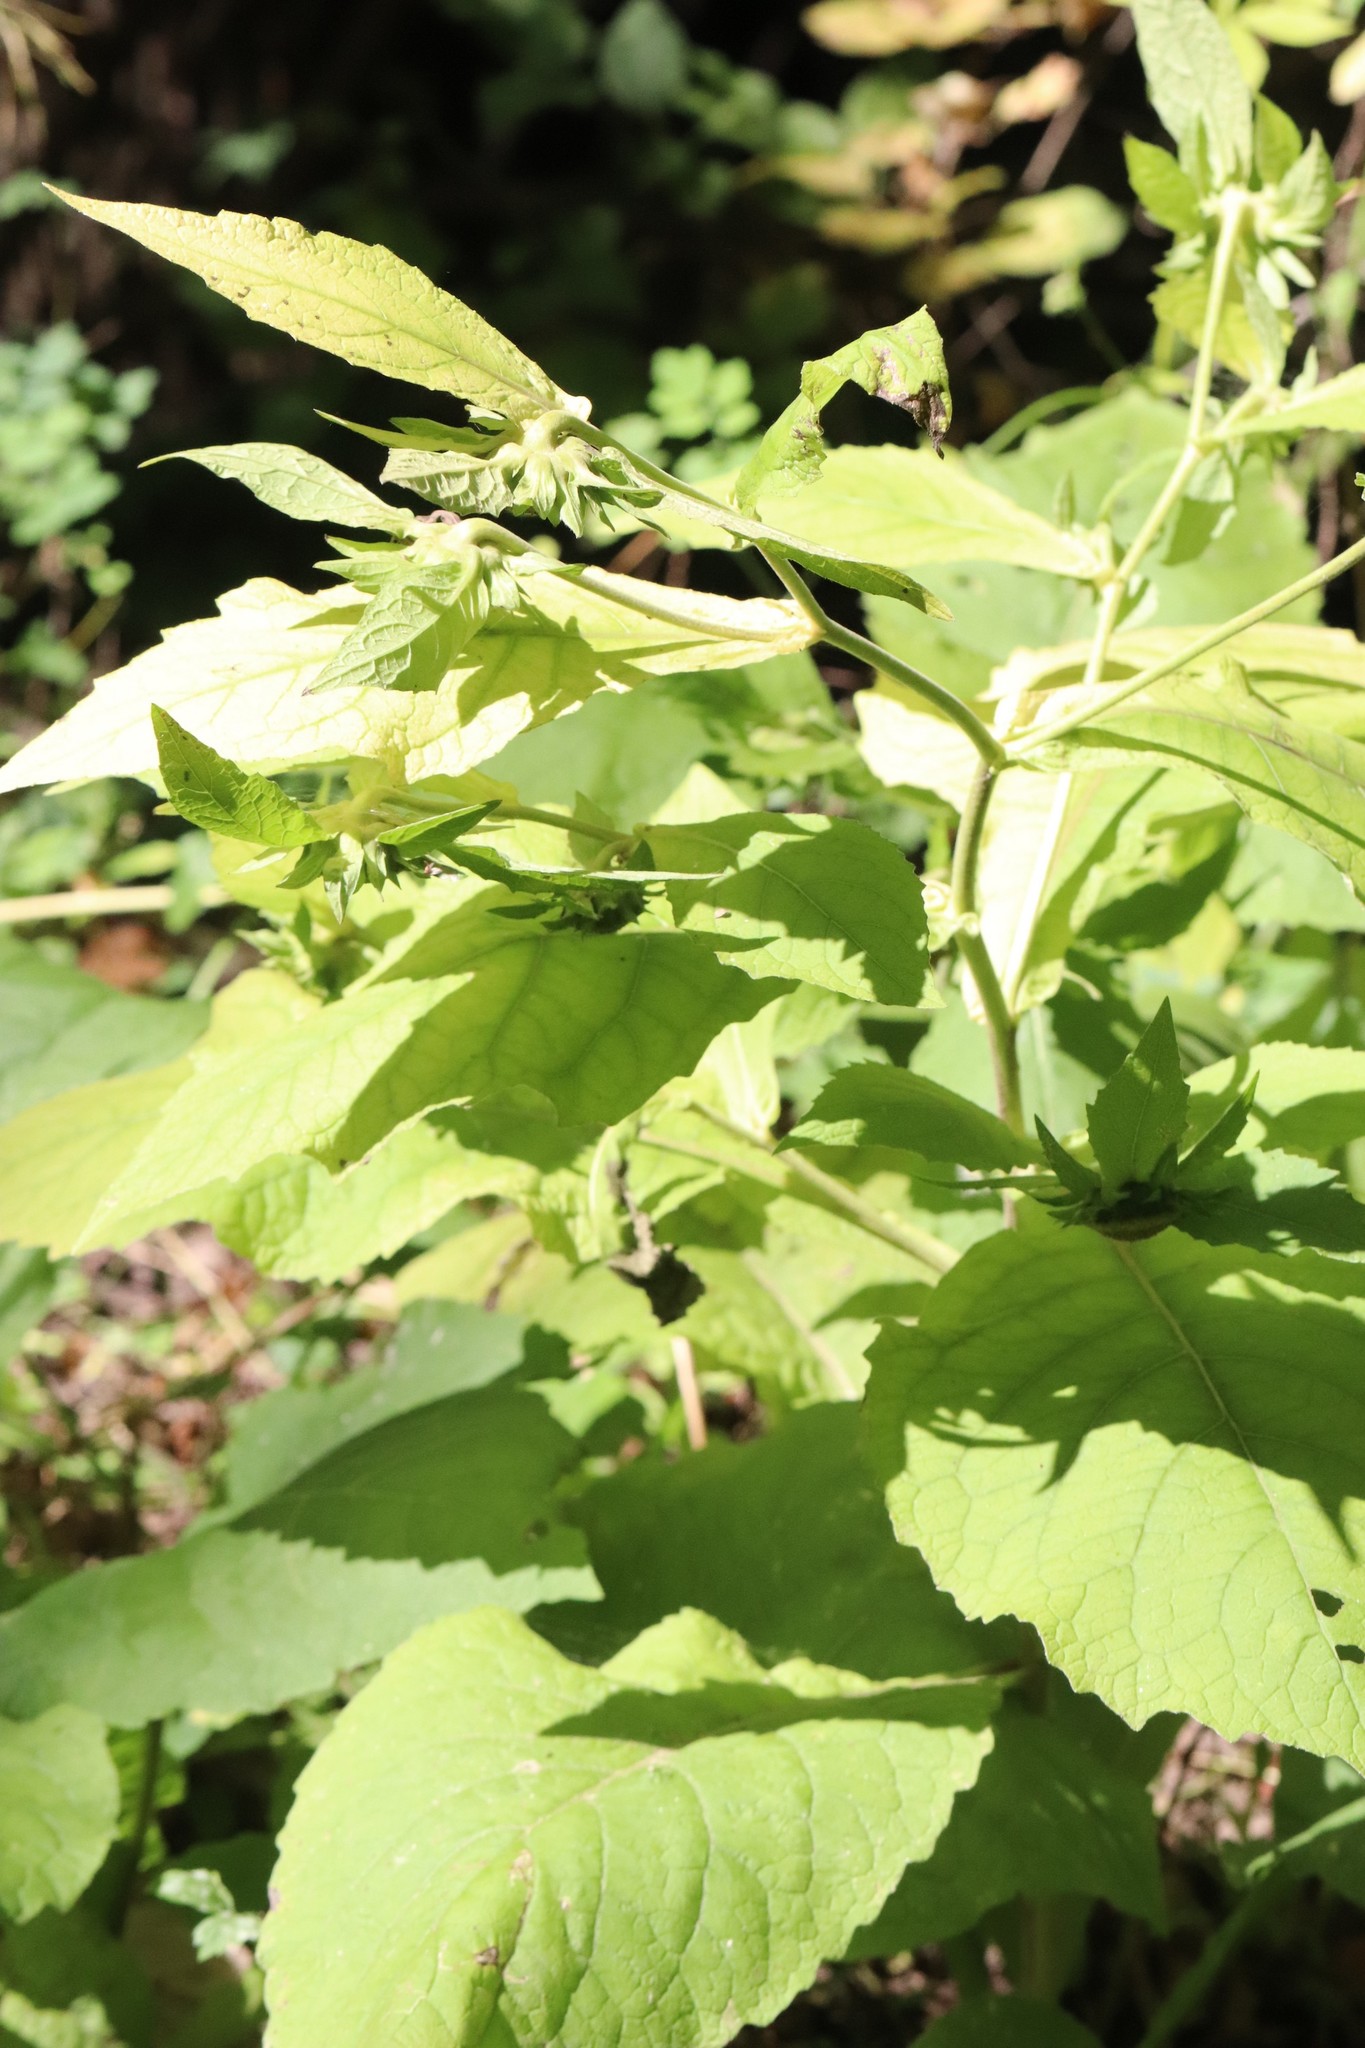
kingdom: Plantae
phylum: Tracheophyta
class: Magnoliopsida
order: Asterales
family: Asteraceae
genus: Carpesium
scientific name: Carpesium macrocephalum
